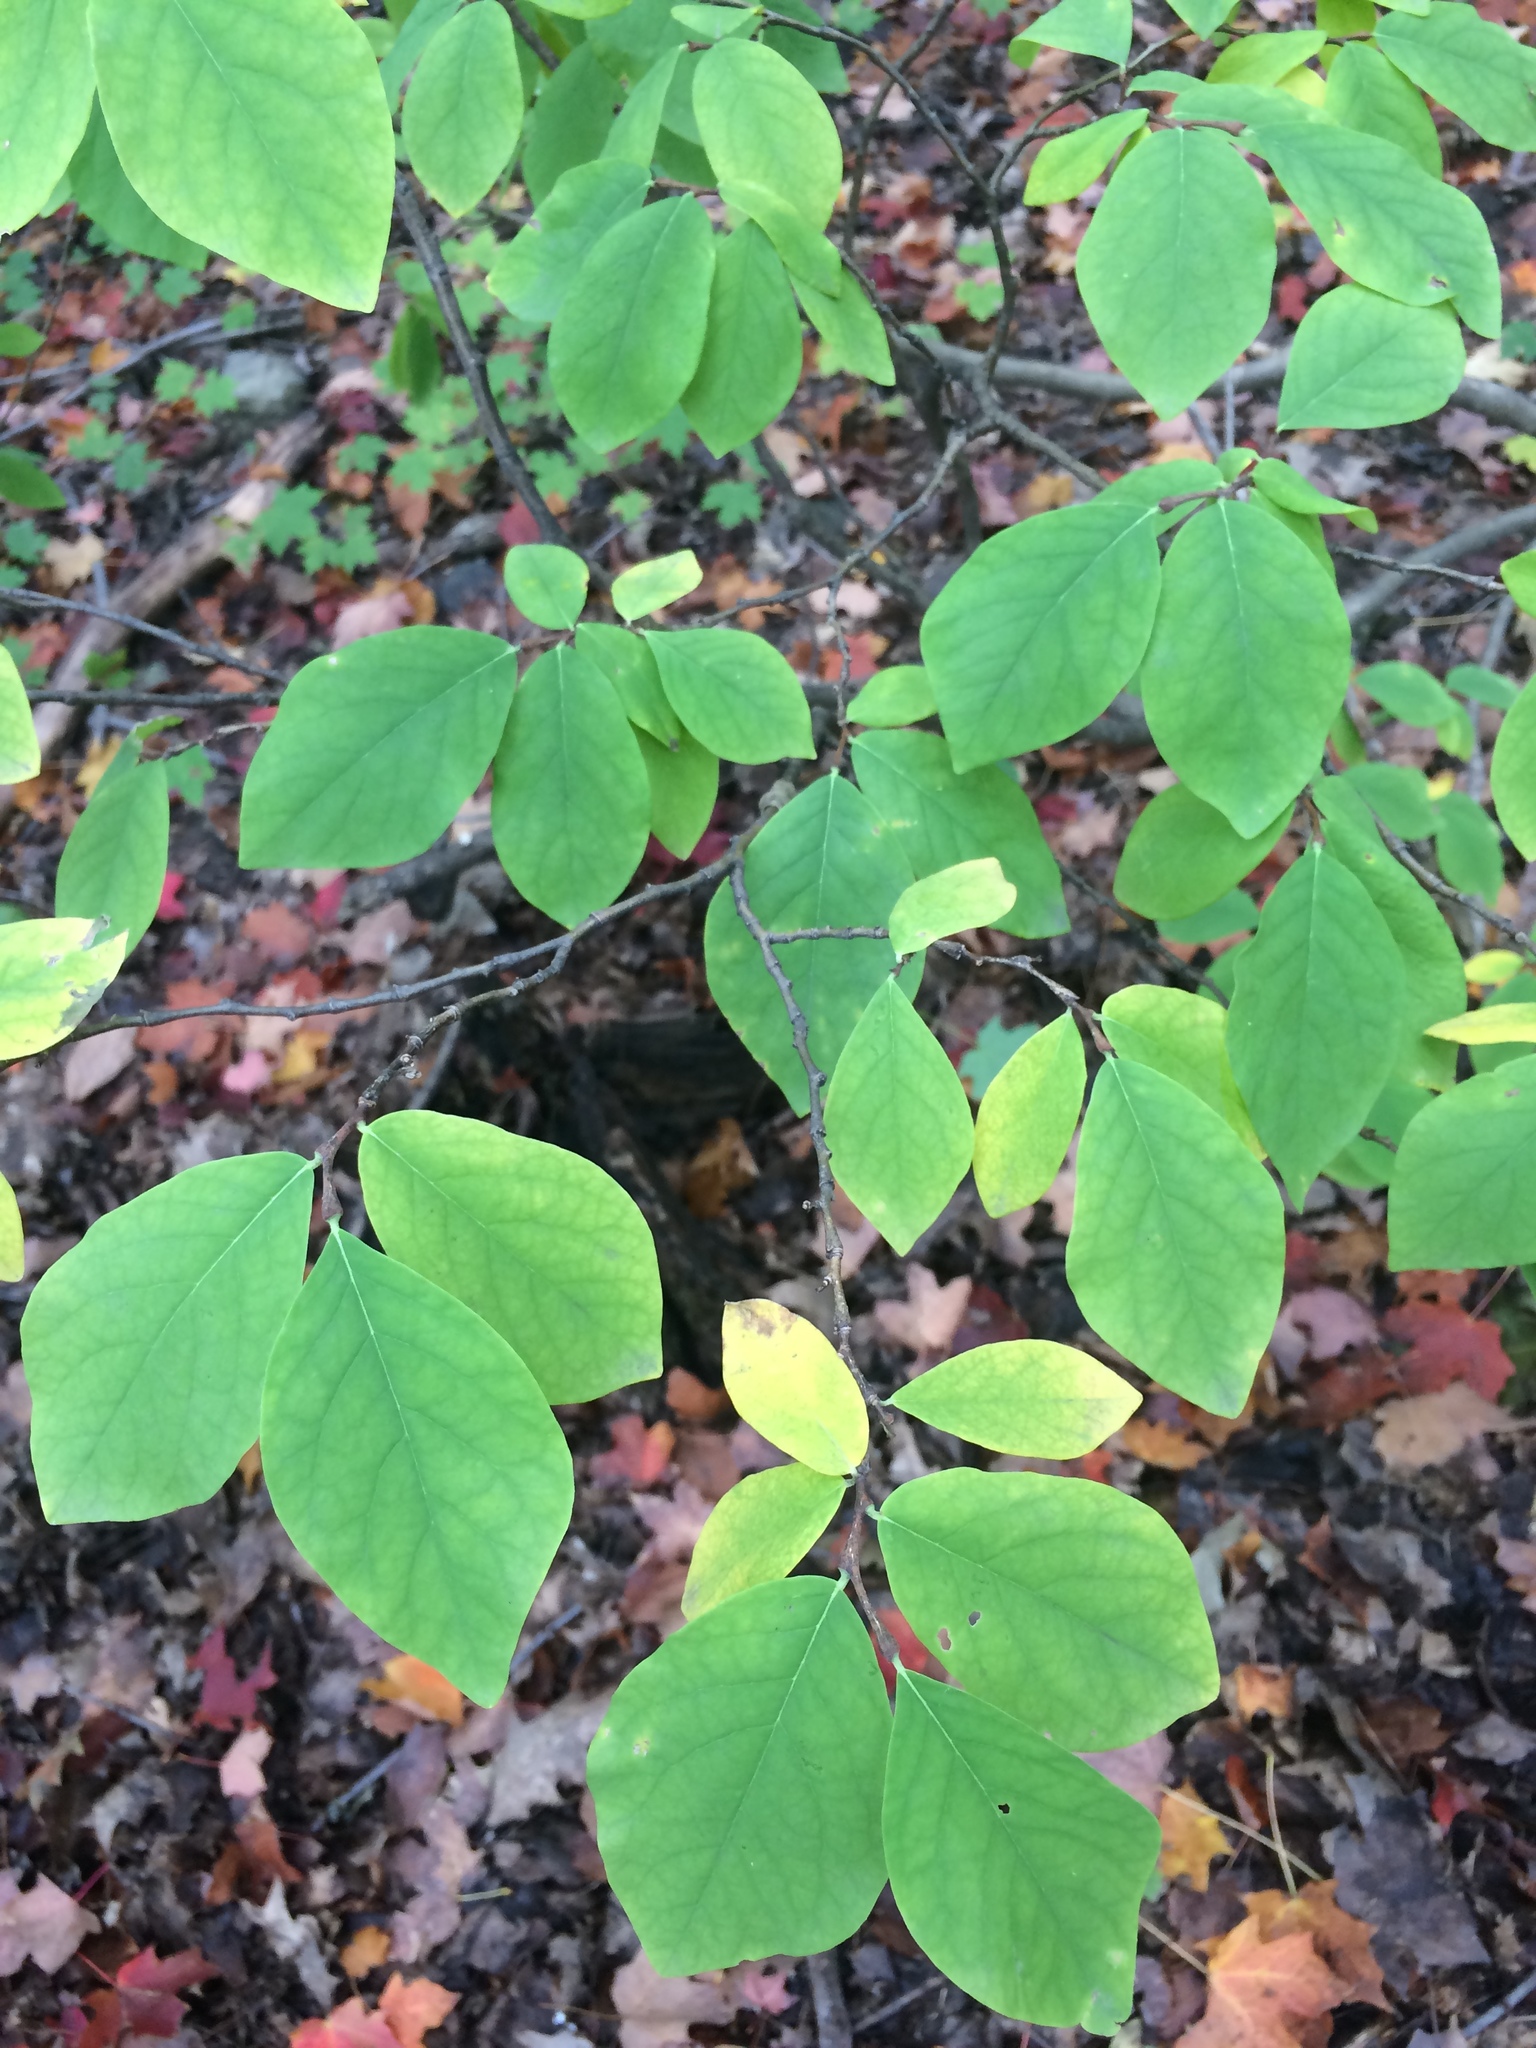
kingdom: Plantae
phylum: Tracheophyta
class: Magnoliopsida
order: Malvales
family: Thymelaeaceae
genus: Dirca
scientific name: Dirca palustris
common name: Leatherwood
